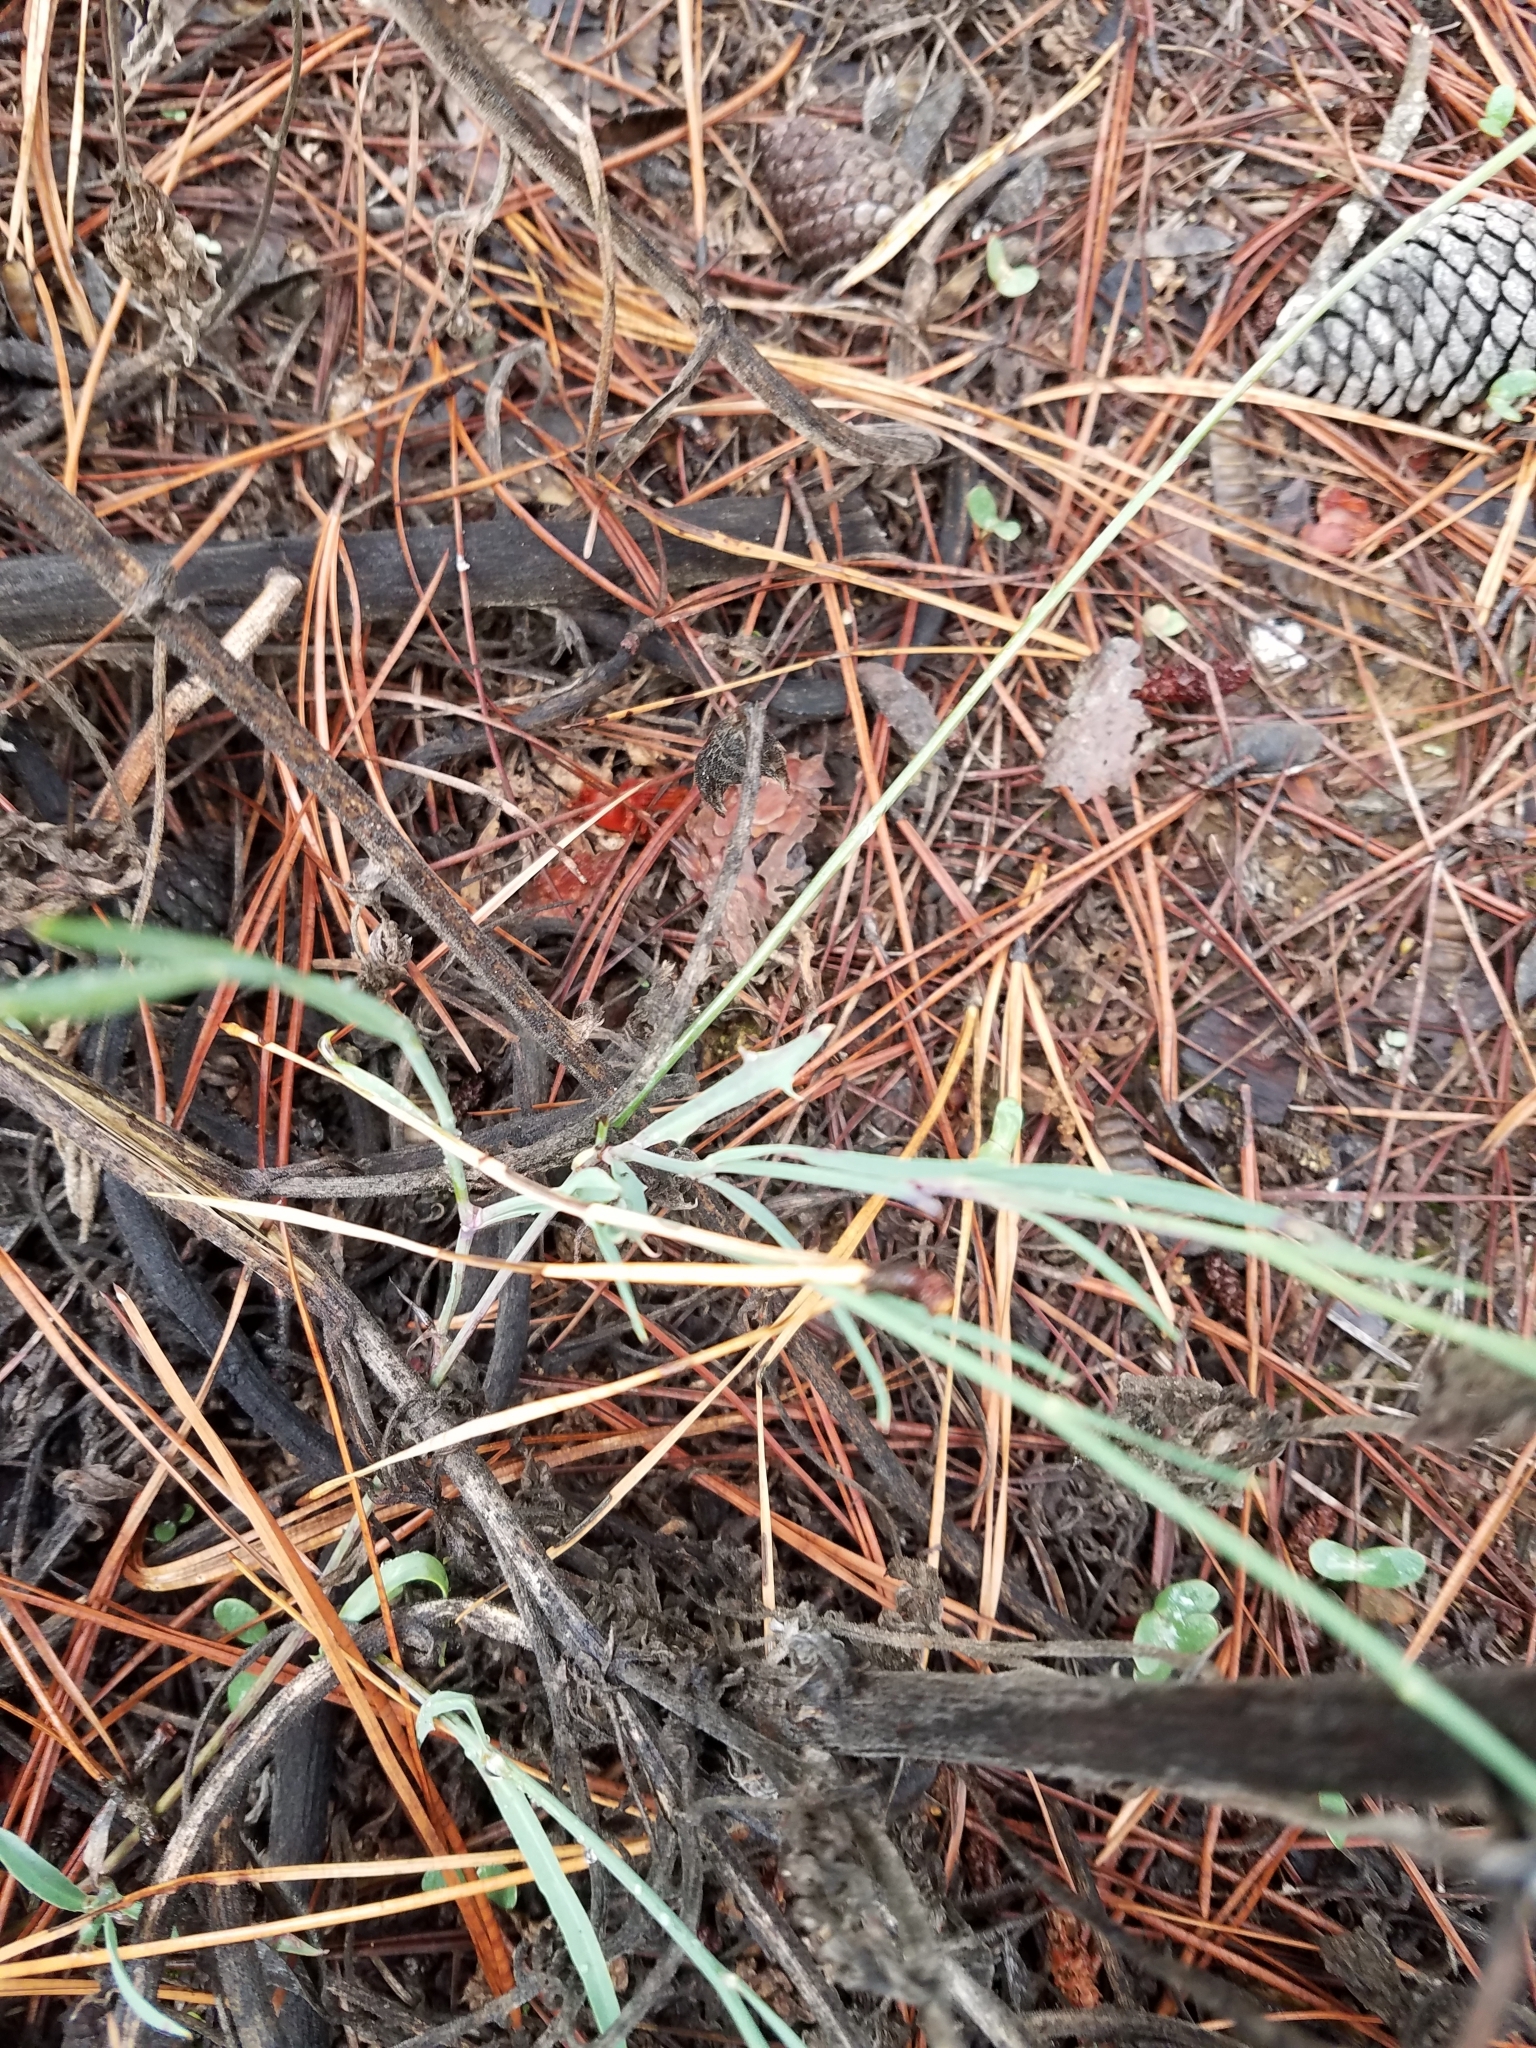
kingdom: Plantae
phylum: Tracheophyta
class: Magnoliopsida
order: Asterales
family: Asteraceae
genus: Pinaropappus
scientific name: Pinaropappus roseus
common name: Rock-lettuce
